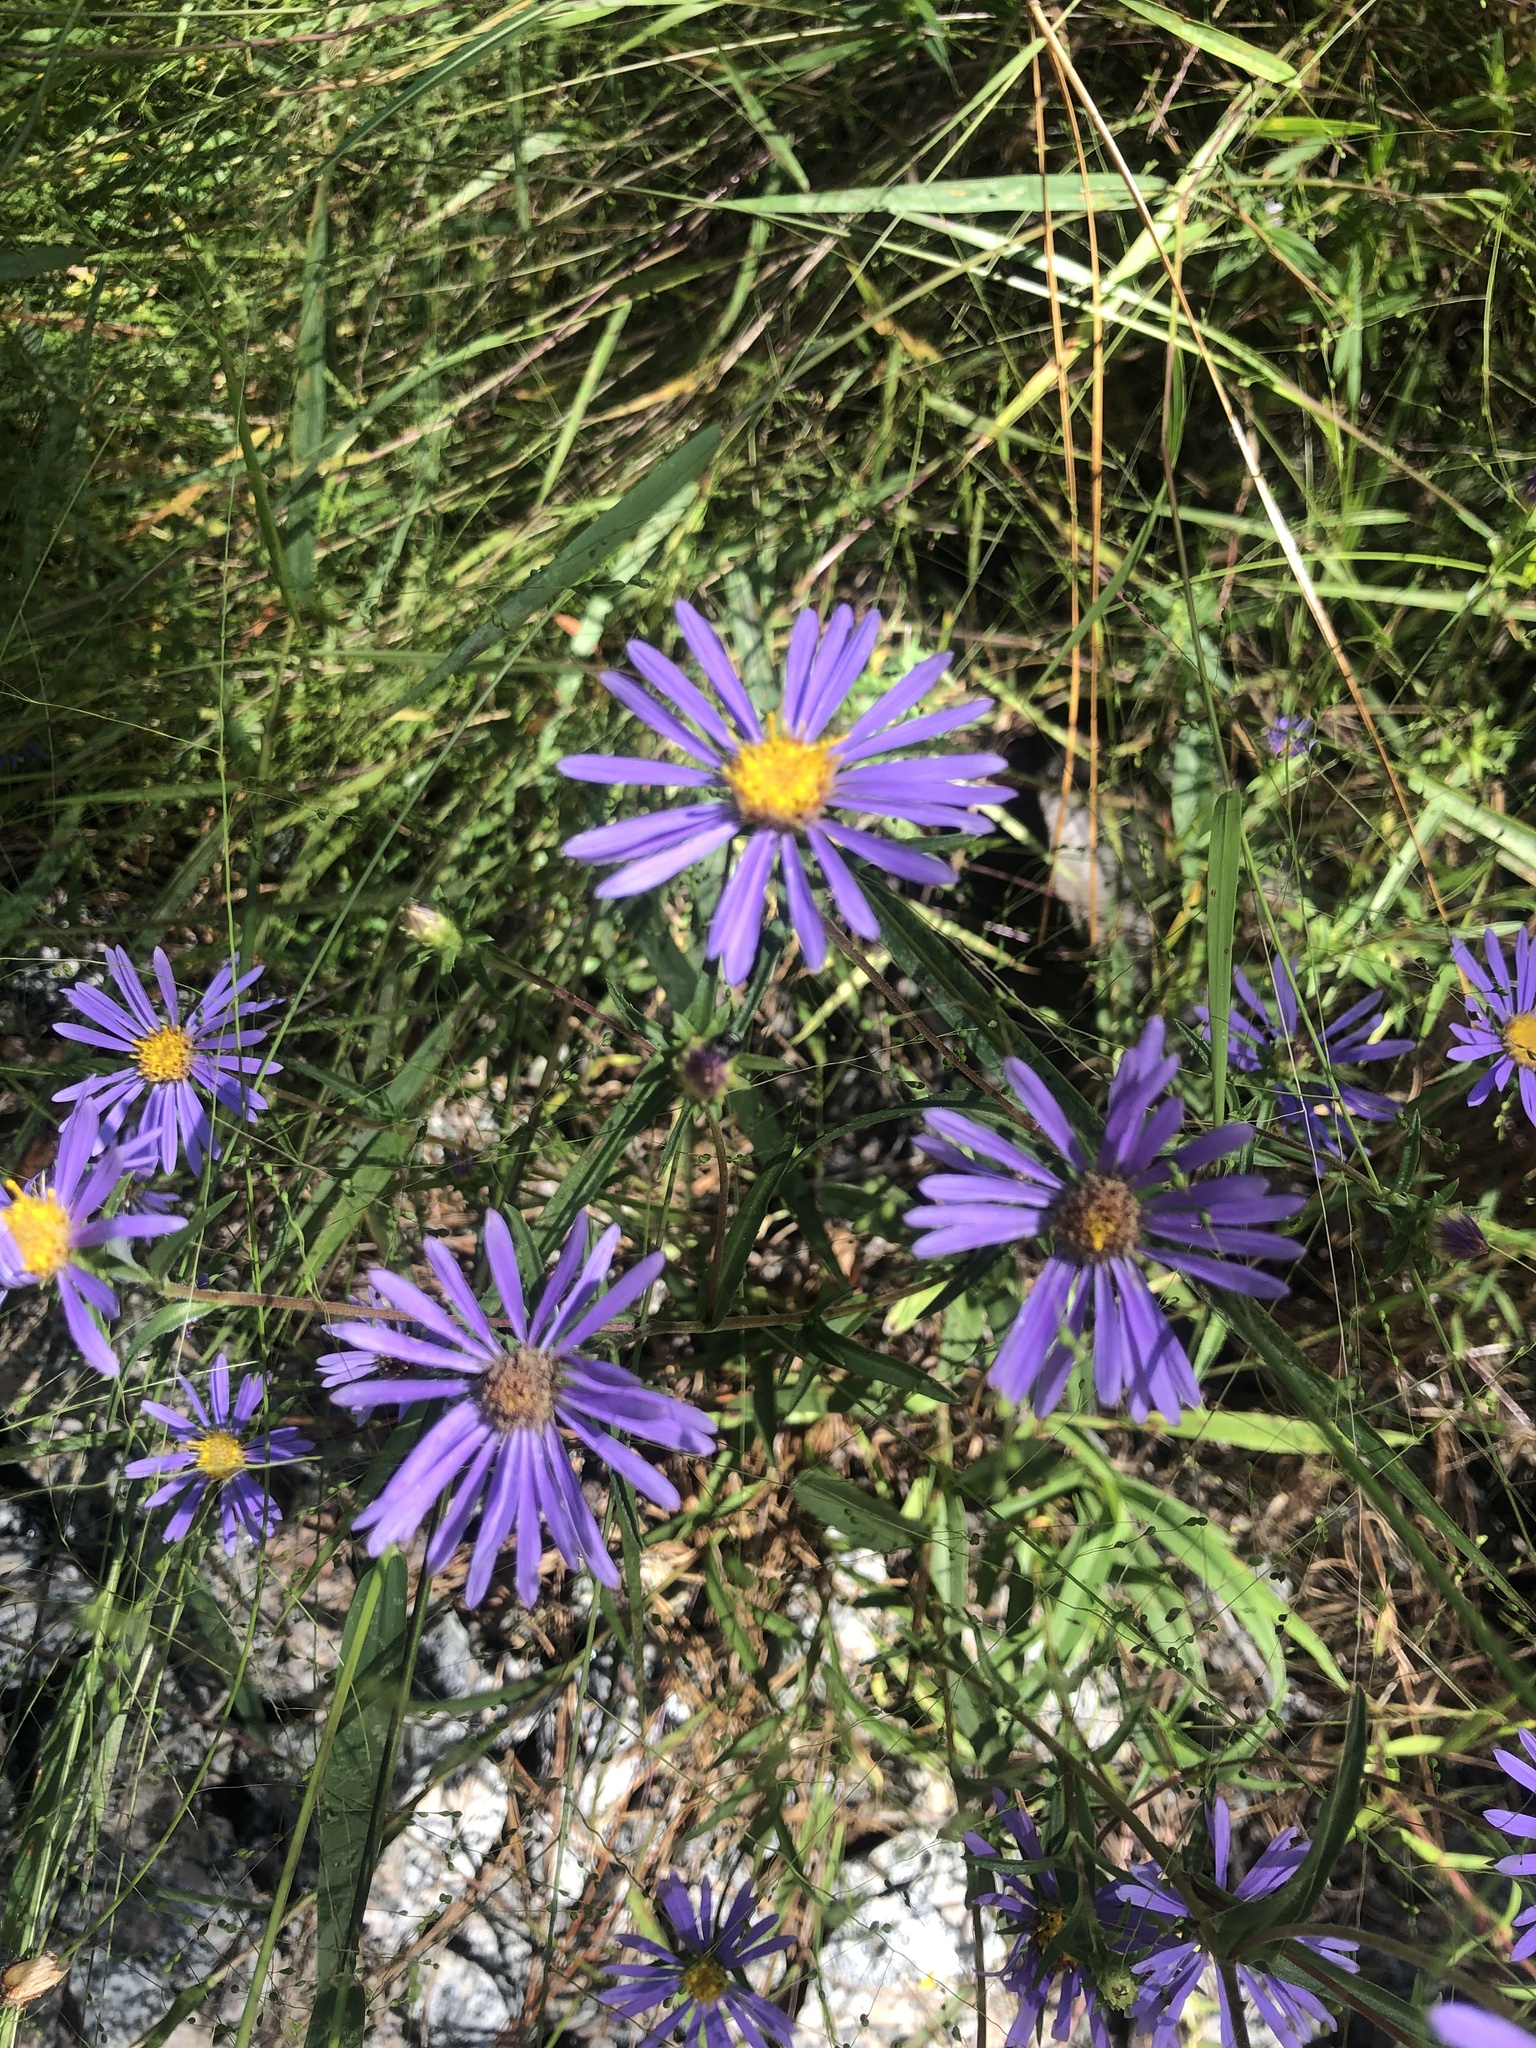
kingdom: Plantae
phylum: Tracheophyta
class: Magnoliopsida
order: Asterales
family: Asteraceae
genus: Symphyotrichum
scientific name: Symphyotrichum novi-belgii
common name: Michaelmas daisy
